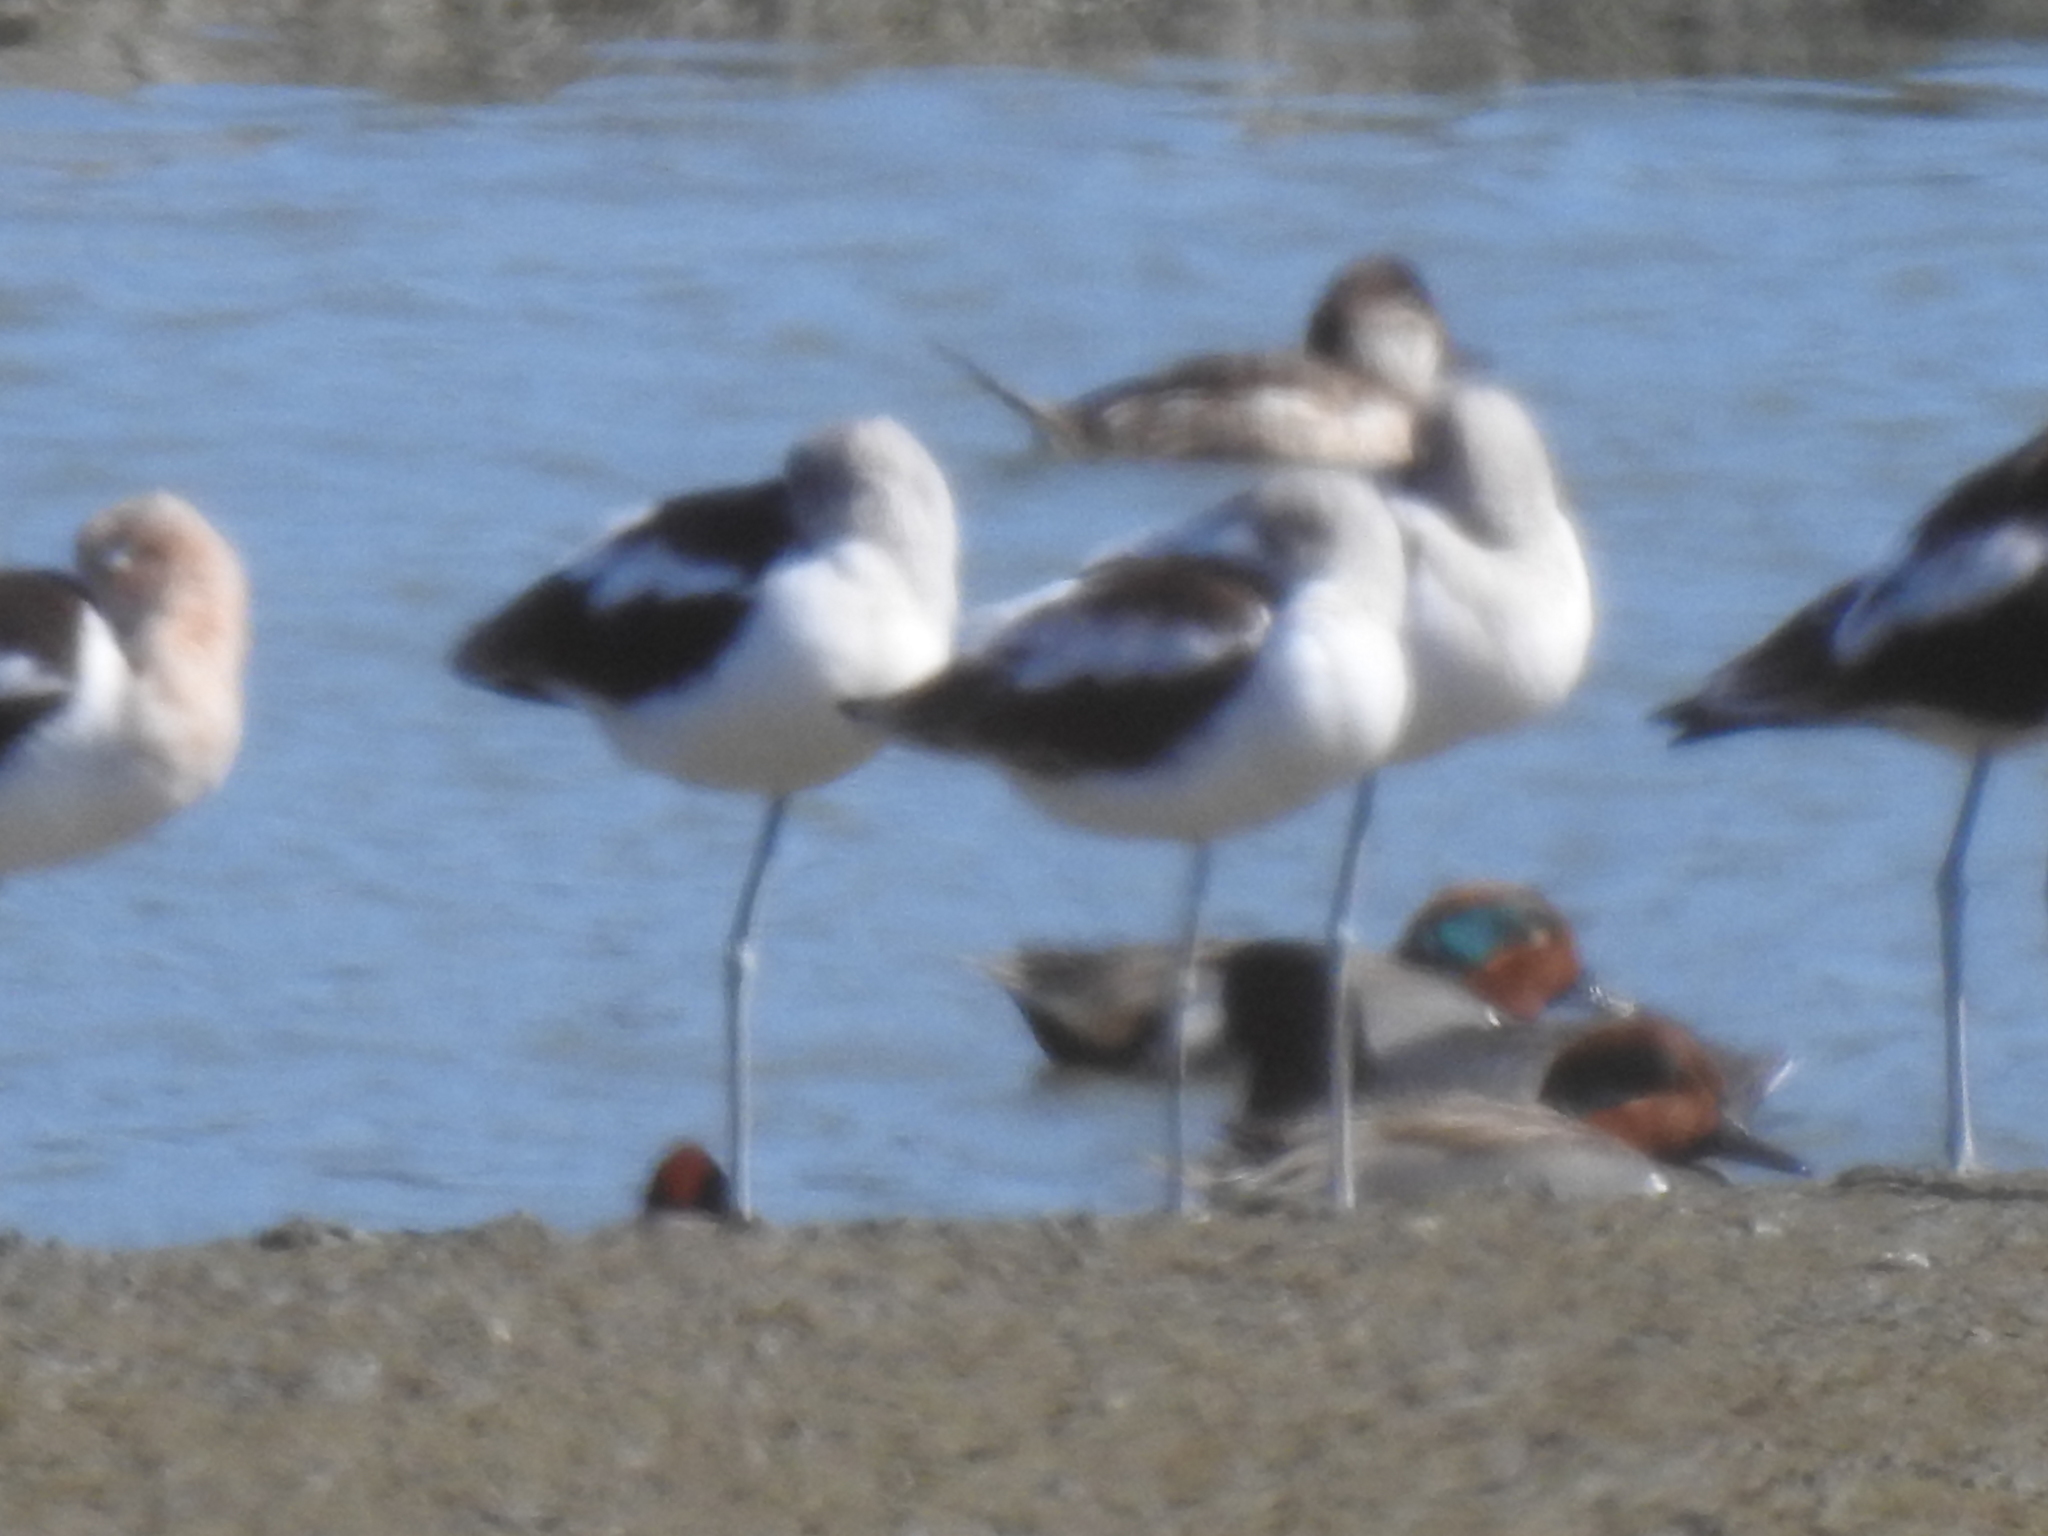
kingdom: Animalia
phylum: Chordata
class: Aves
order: Charadriiformes
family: Recurvirostridae
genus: Recurvirostra
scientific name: Recurvirostra americana
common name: American avocet
